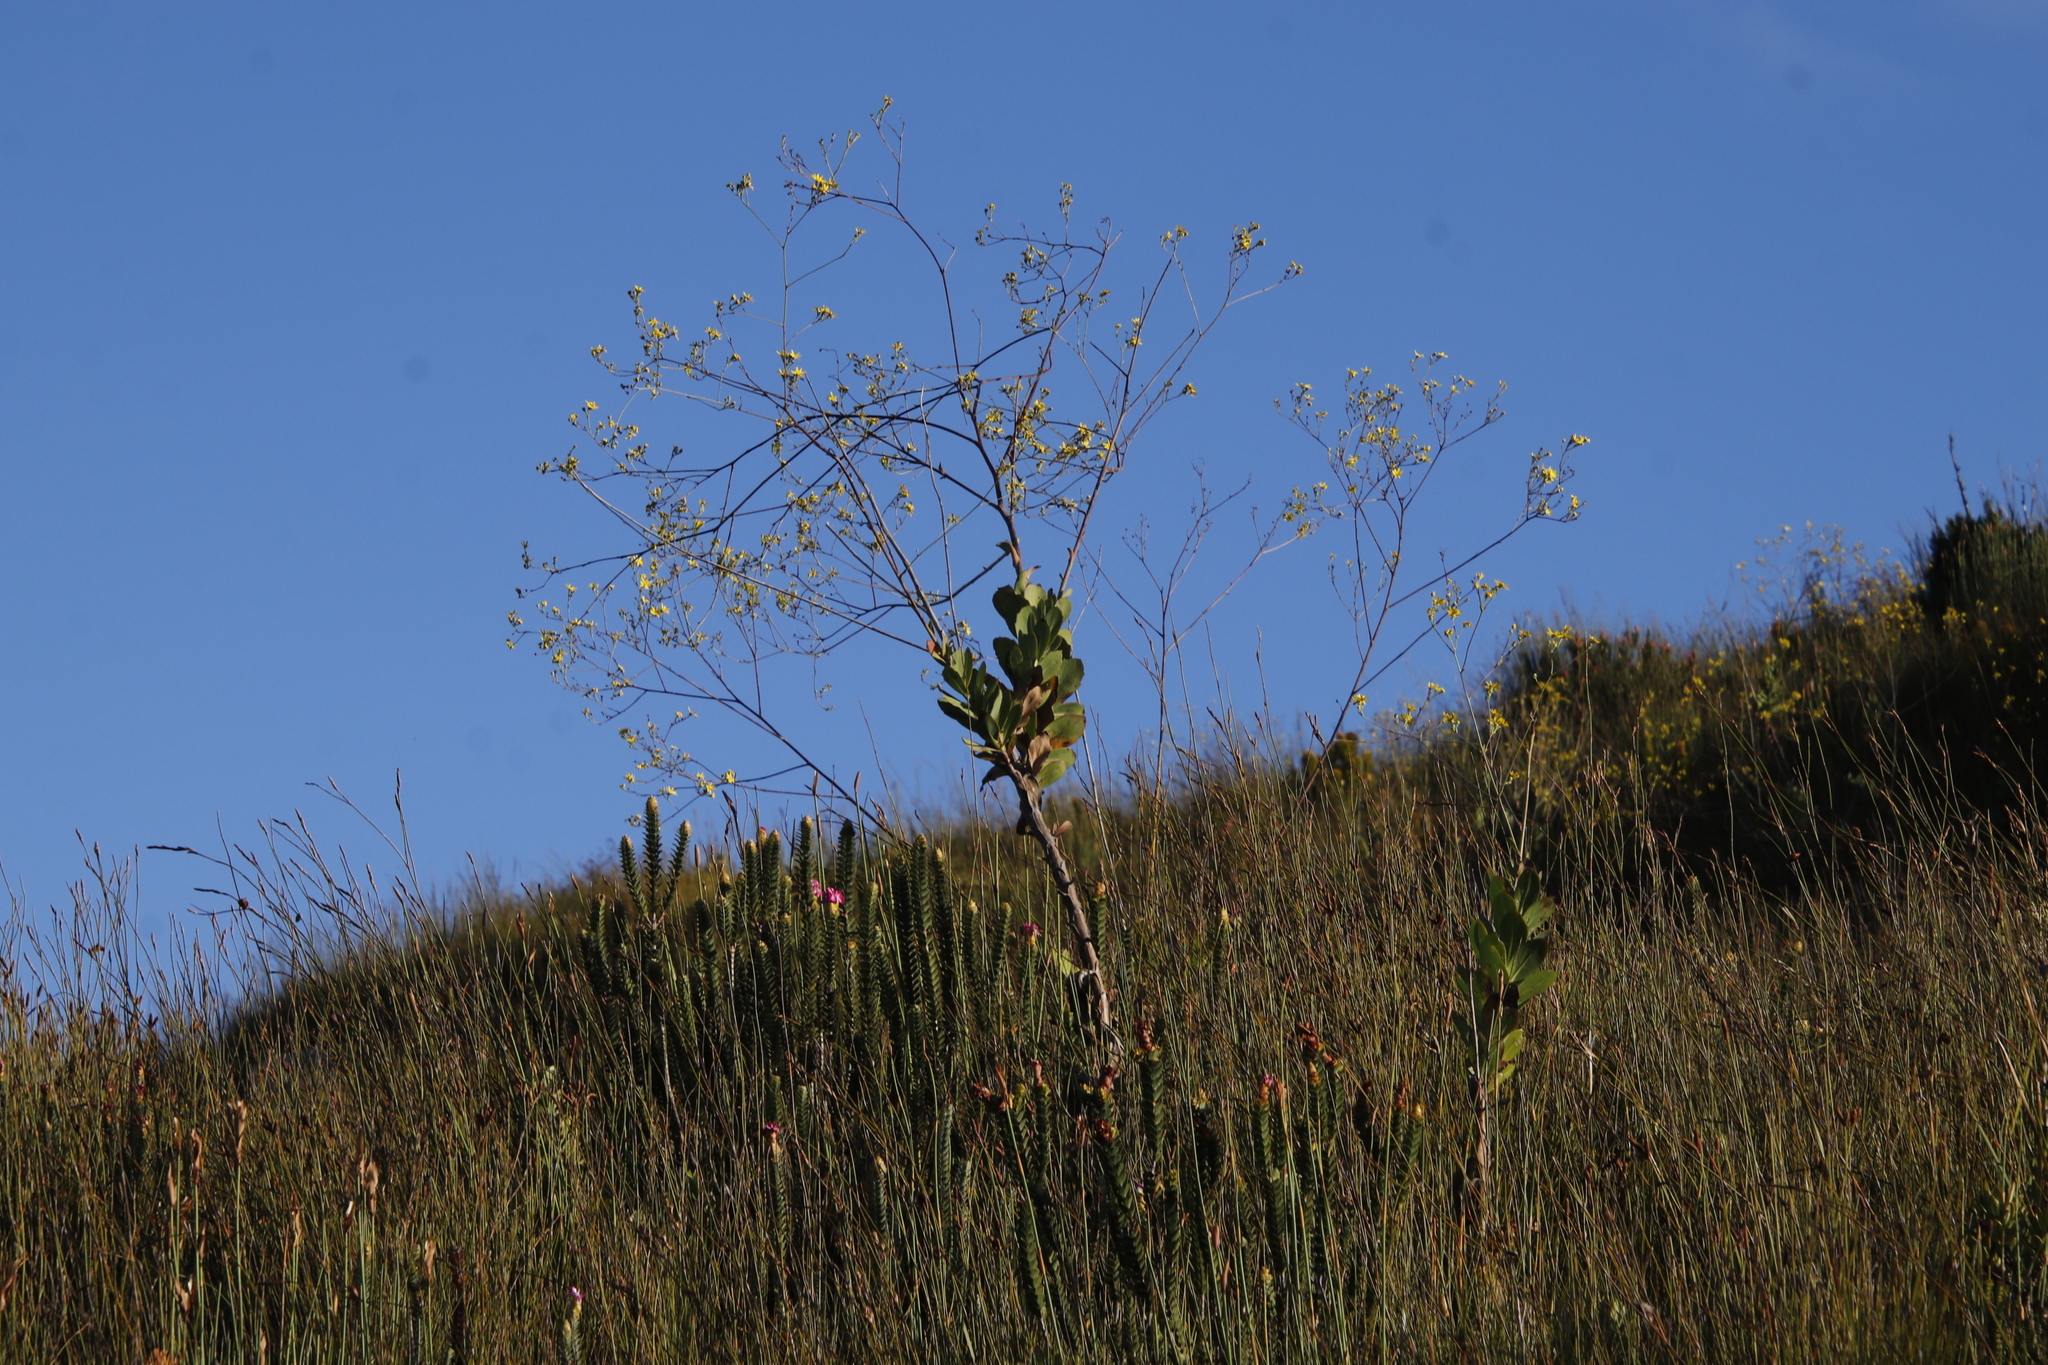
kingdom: Plantae
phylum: Tracheophyta
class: Magnoliopsida
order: Asterales
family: Asteraceae
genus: Othonna
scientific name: Othonna quinquedentata
